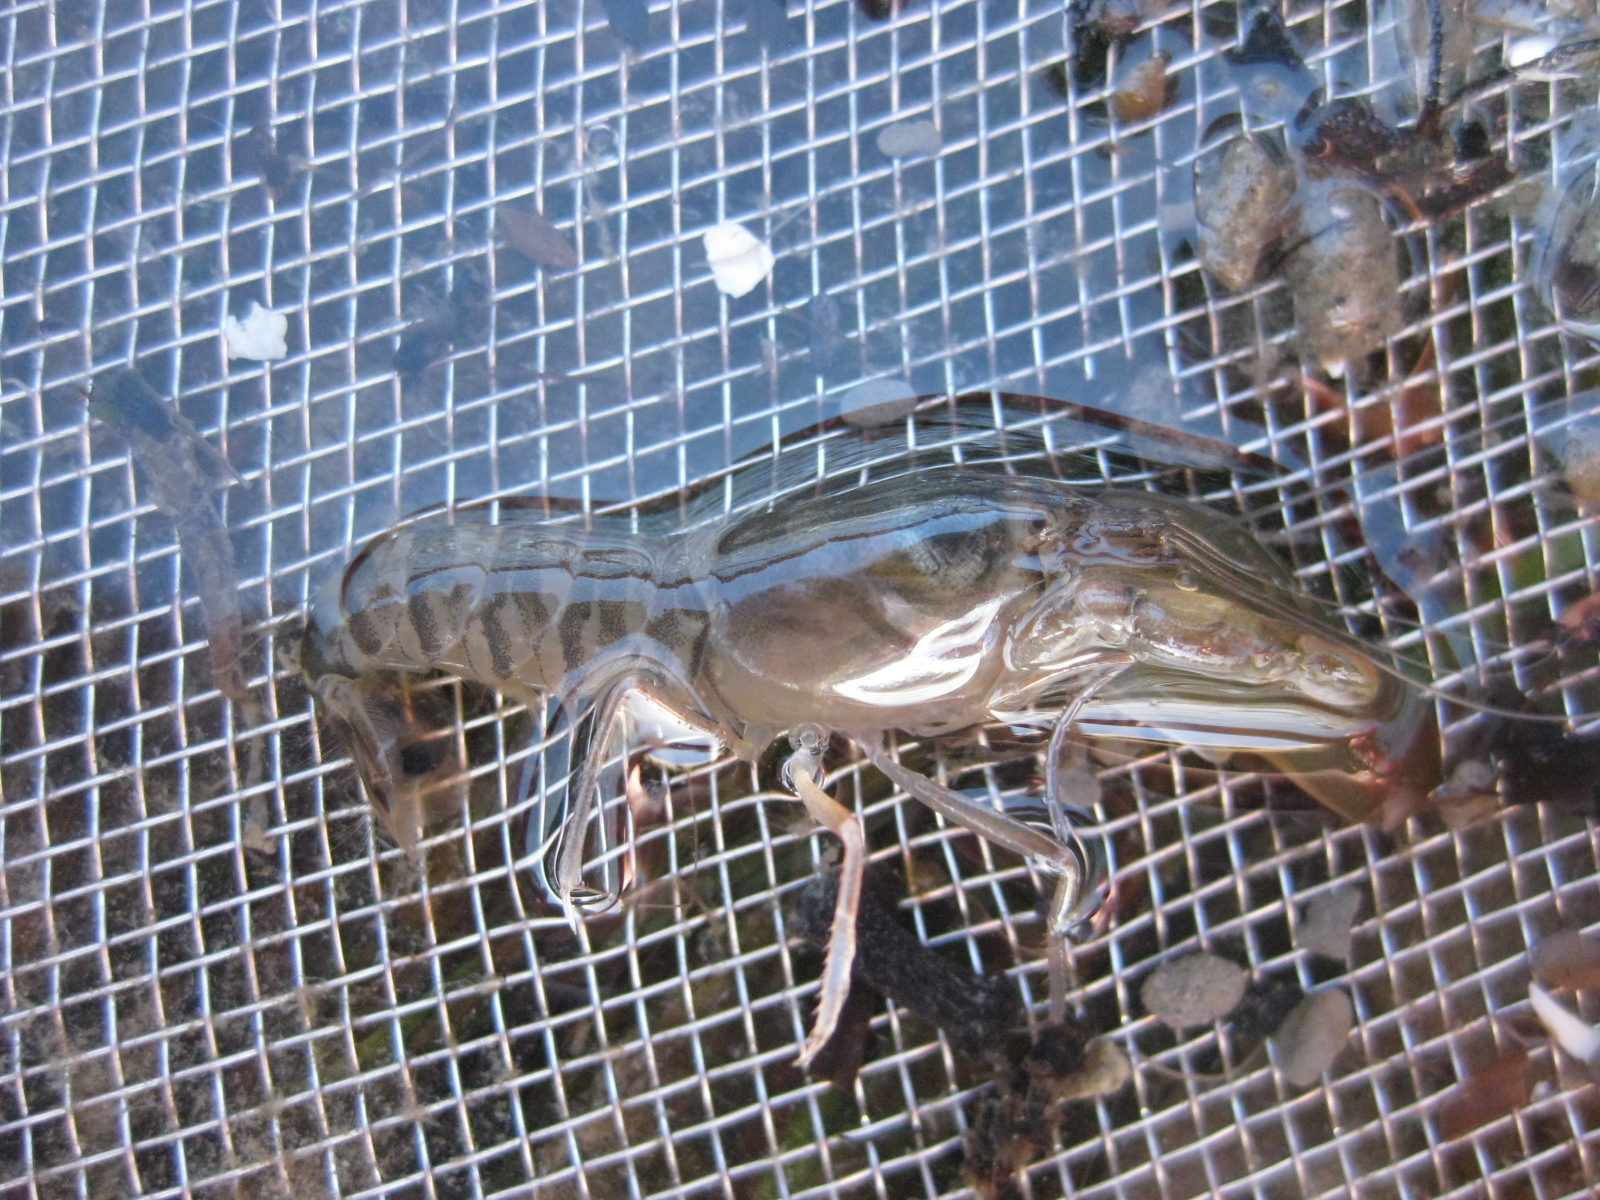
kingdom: Animalia
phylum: Arthropoda
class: Malacostraca
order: Decapoda
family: Alpheidae
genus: Alpheus
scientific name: Alpheus richardsoni
